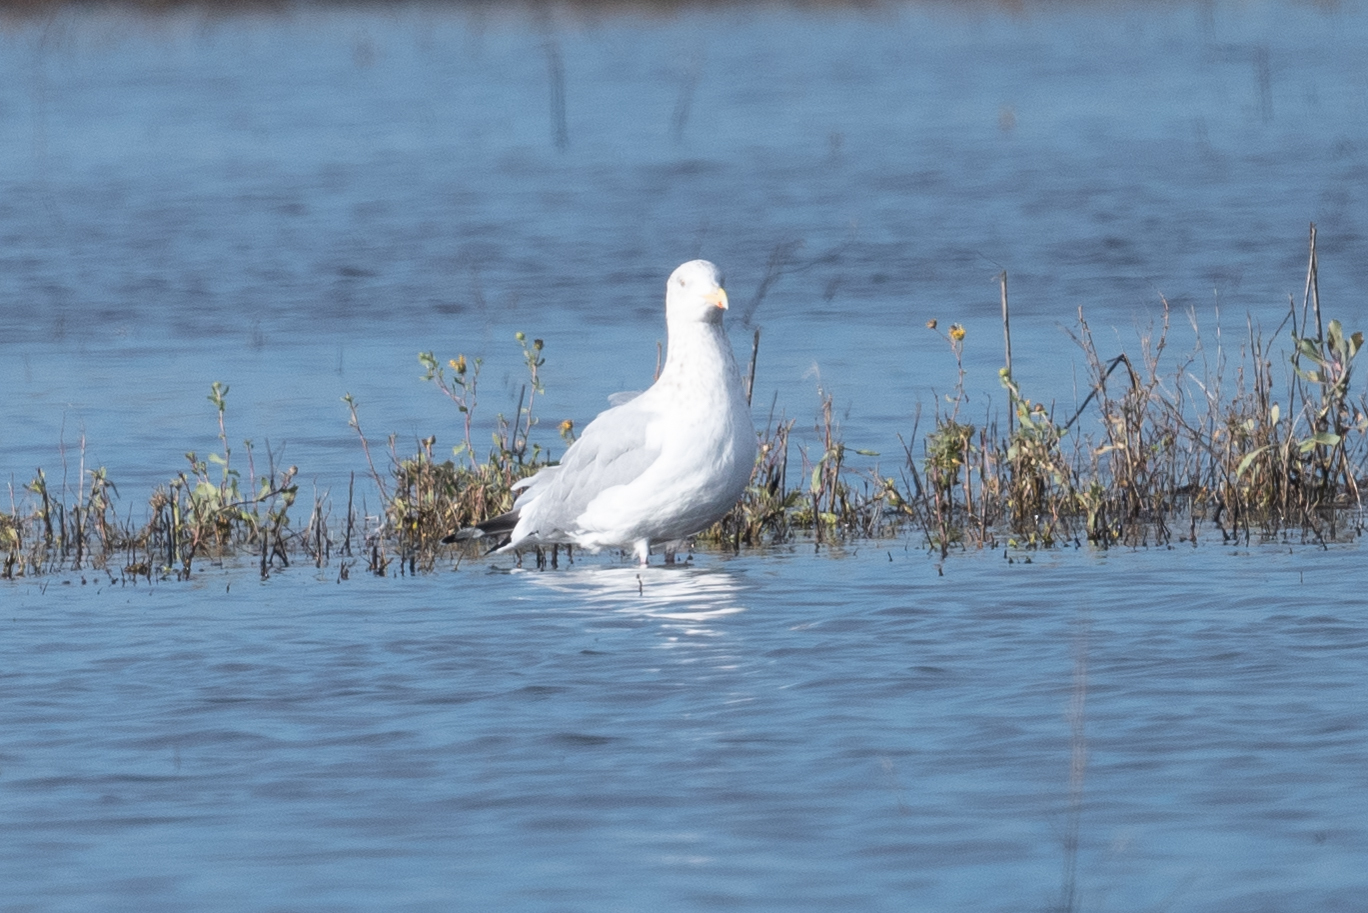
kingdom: Animalia
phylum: Chordata
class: Aves
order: Charadriiformes
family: Laridae
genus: Larus
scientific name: Larus argentatus
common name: Herring gull
